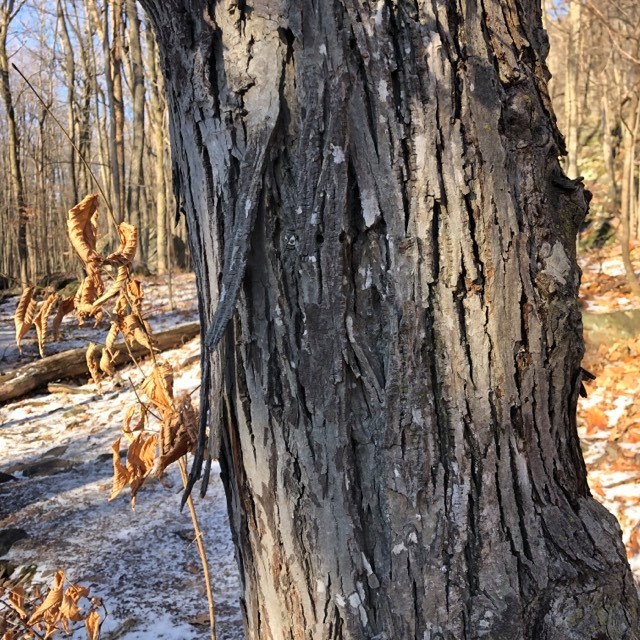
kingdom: Plantae
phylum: Tracheophyta
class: Magnoliopsida
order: Fagales
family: Juglandaceae
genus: Carya
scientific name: Carya ovata
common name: Shagbark hickory
